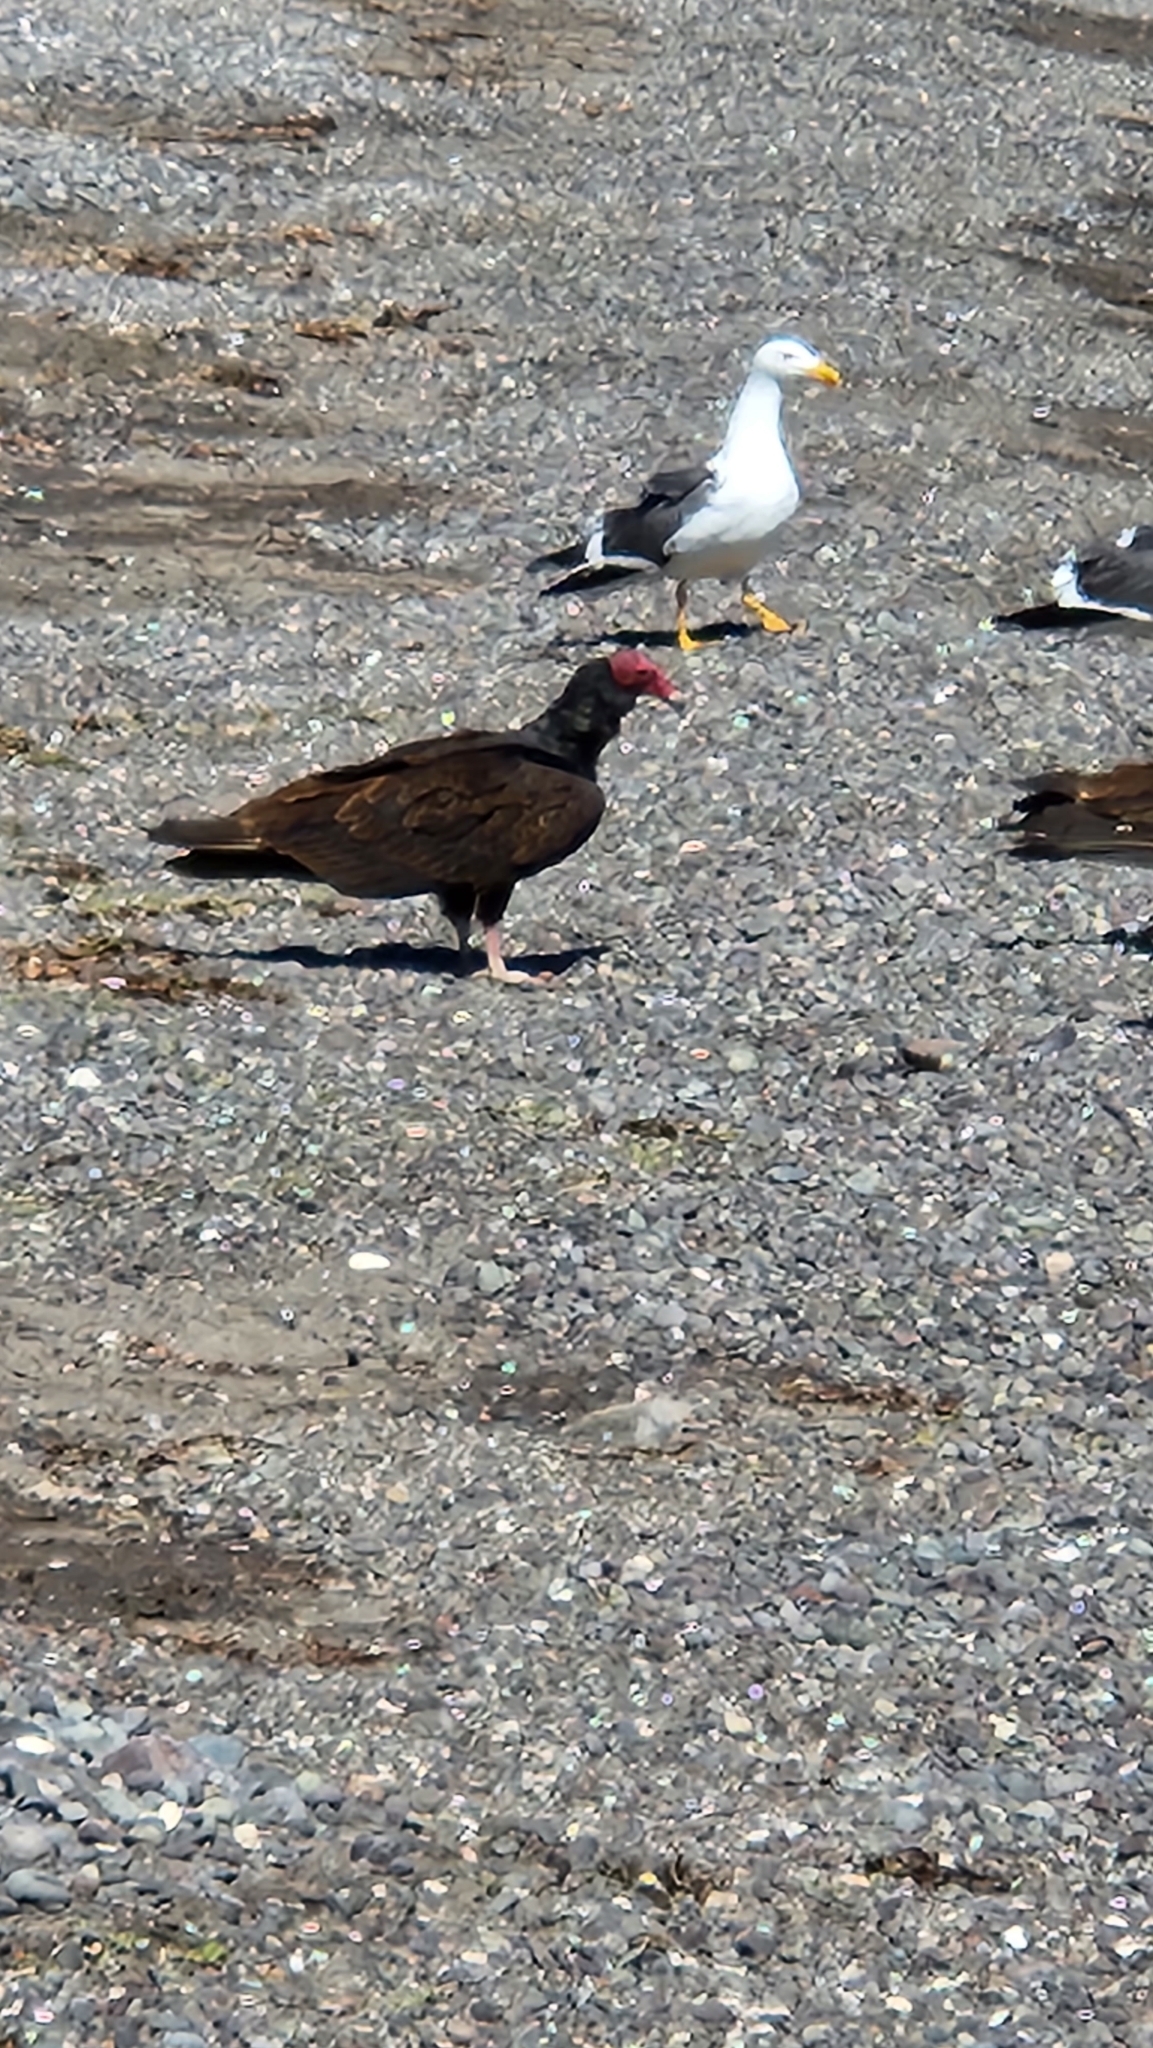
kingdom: Animalia
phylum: Chordata
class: Aves
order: Accipitriformes
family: Cathartidae
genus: Cathartes
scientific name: Cathartes aura
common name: Turkey vulture
